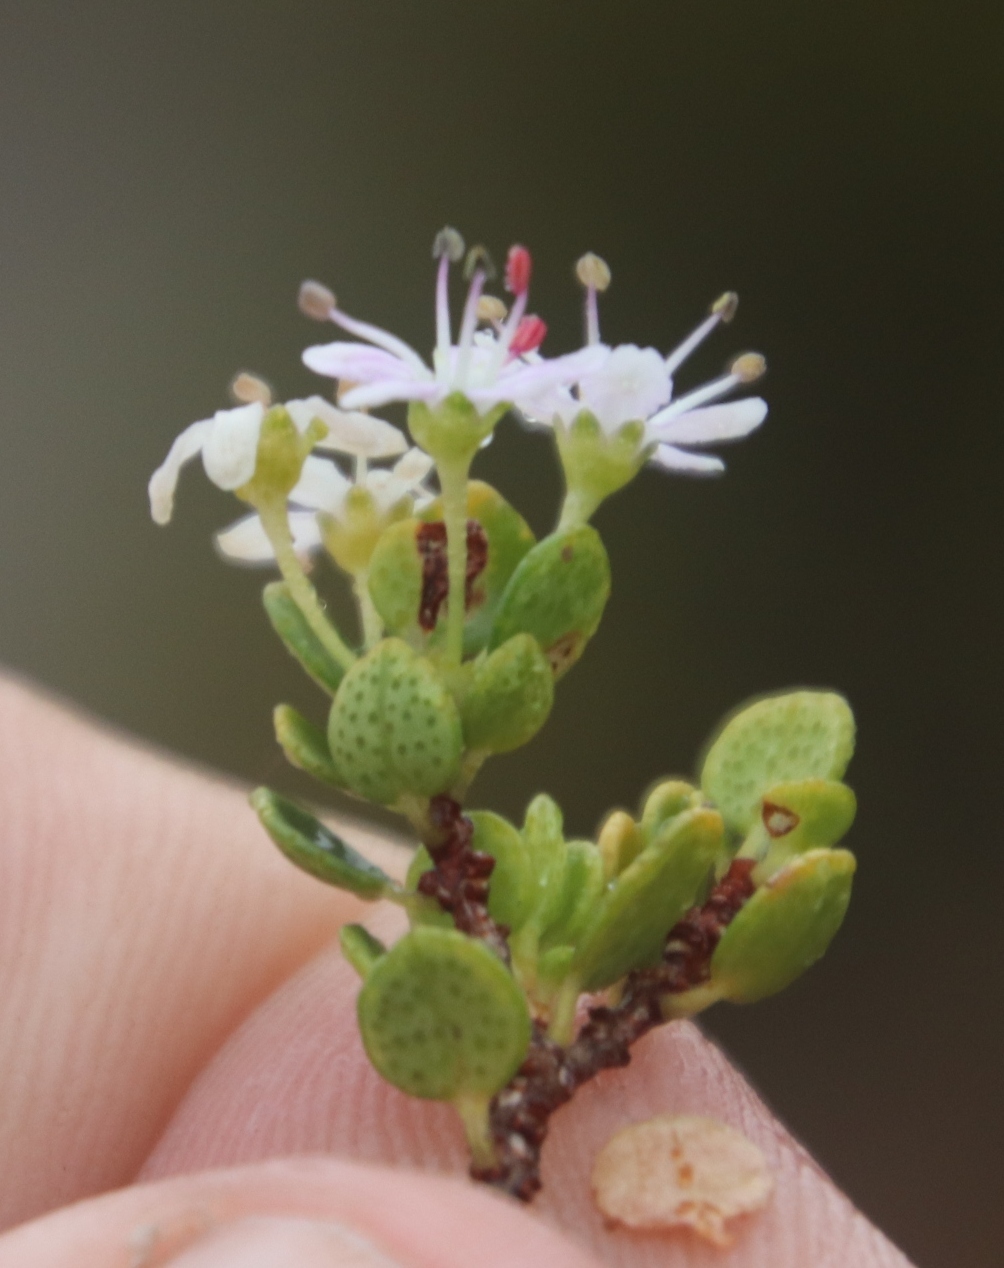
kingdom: Plantae
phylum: Tracheophyta
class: Magnoliopsida
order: Sapindales
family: Rutaceae
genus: Agathosma
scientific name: Agathosma ovata
